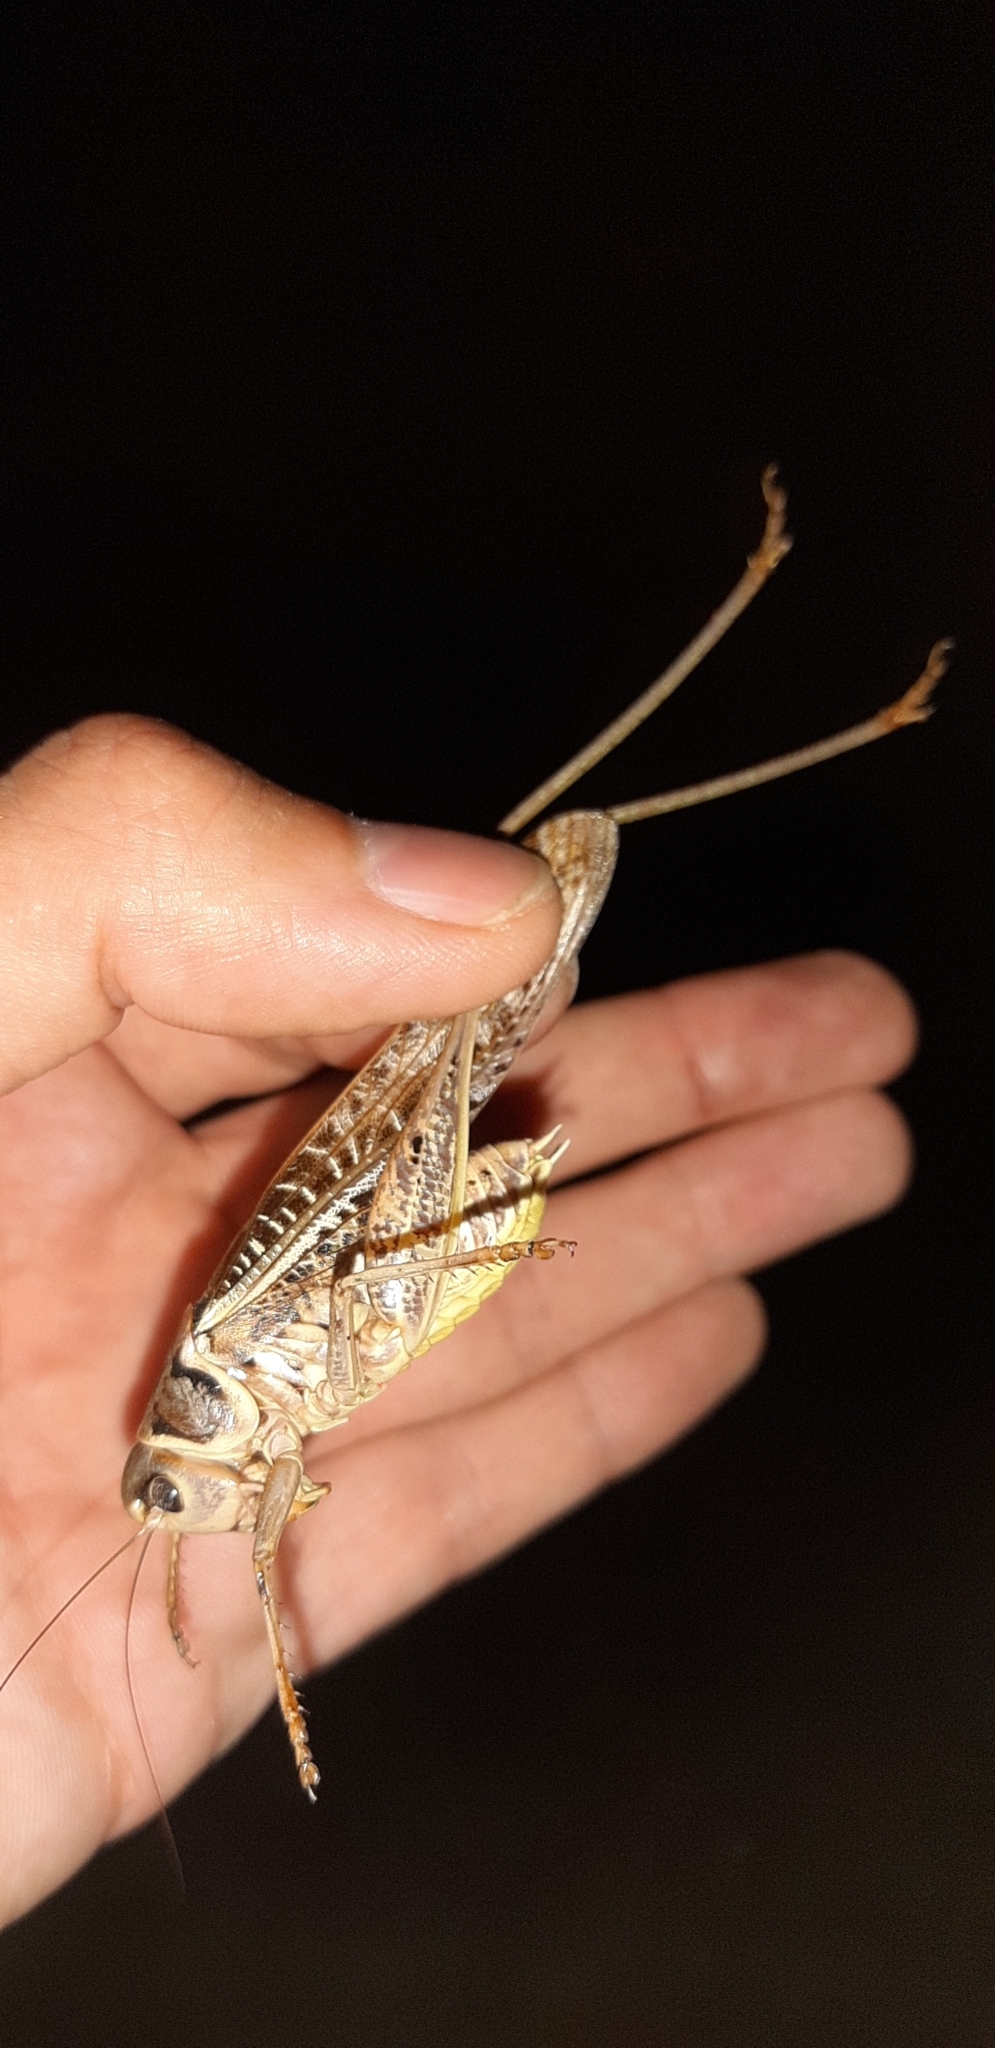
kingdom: Animalia
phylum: Arthropoda
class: Insecta
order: Orthoptera
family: Tettigoniidae
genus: Decticus
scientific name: Decticus albifrons
